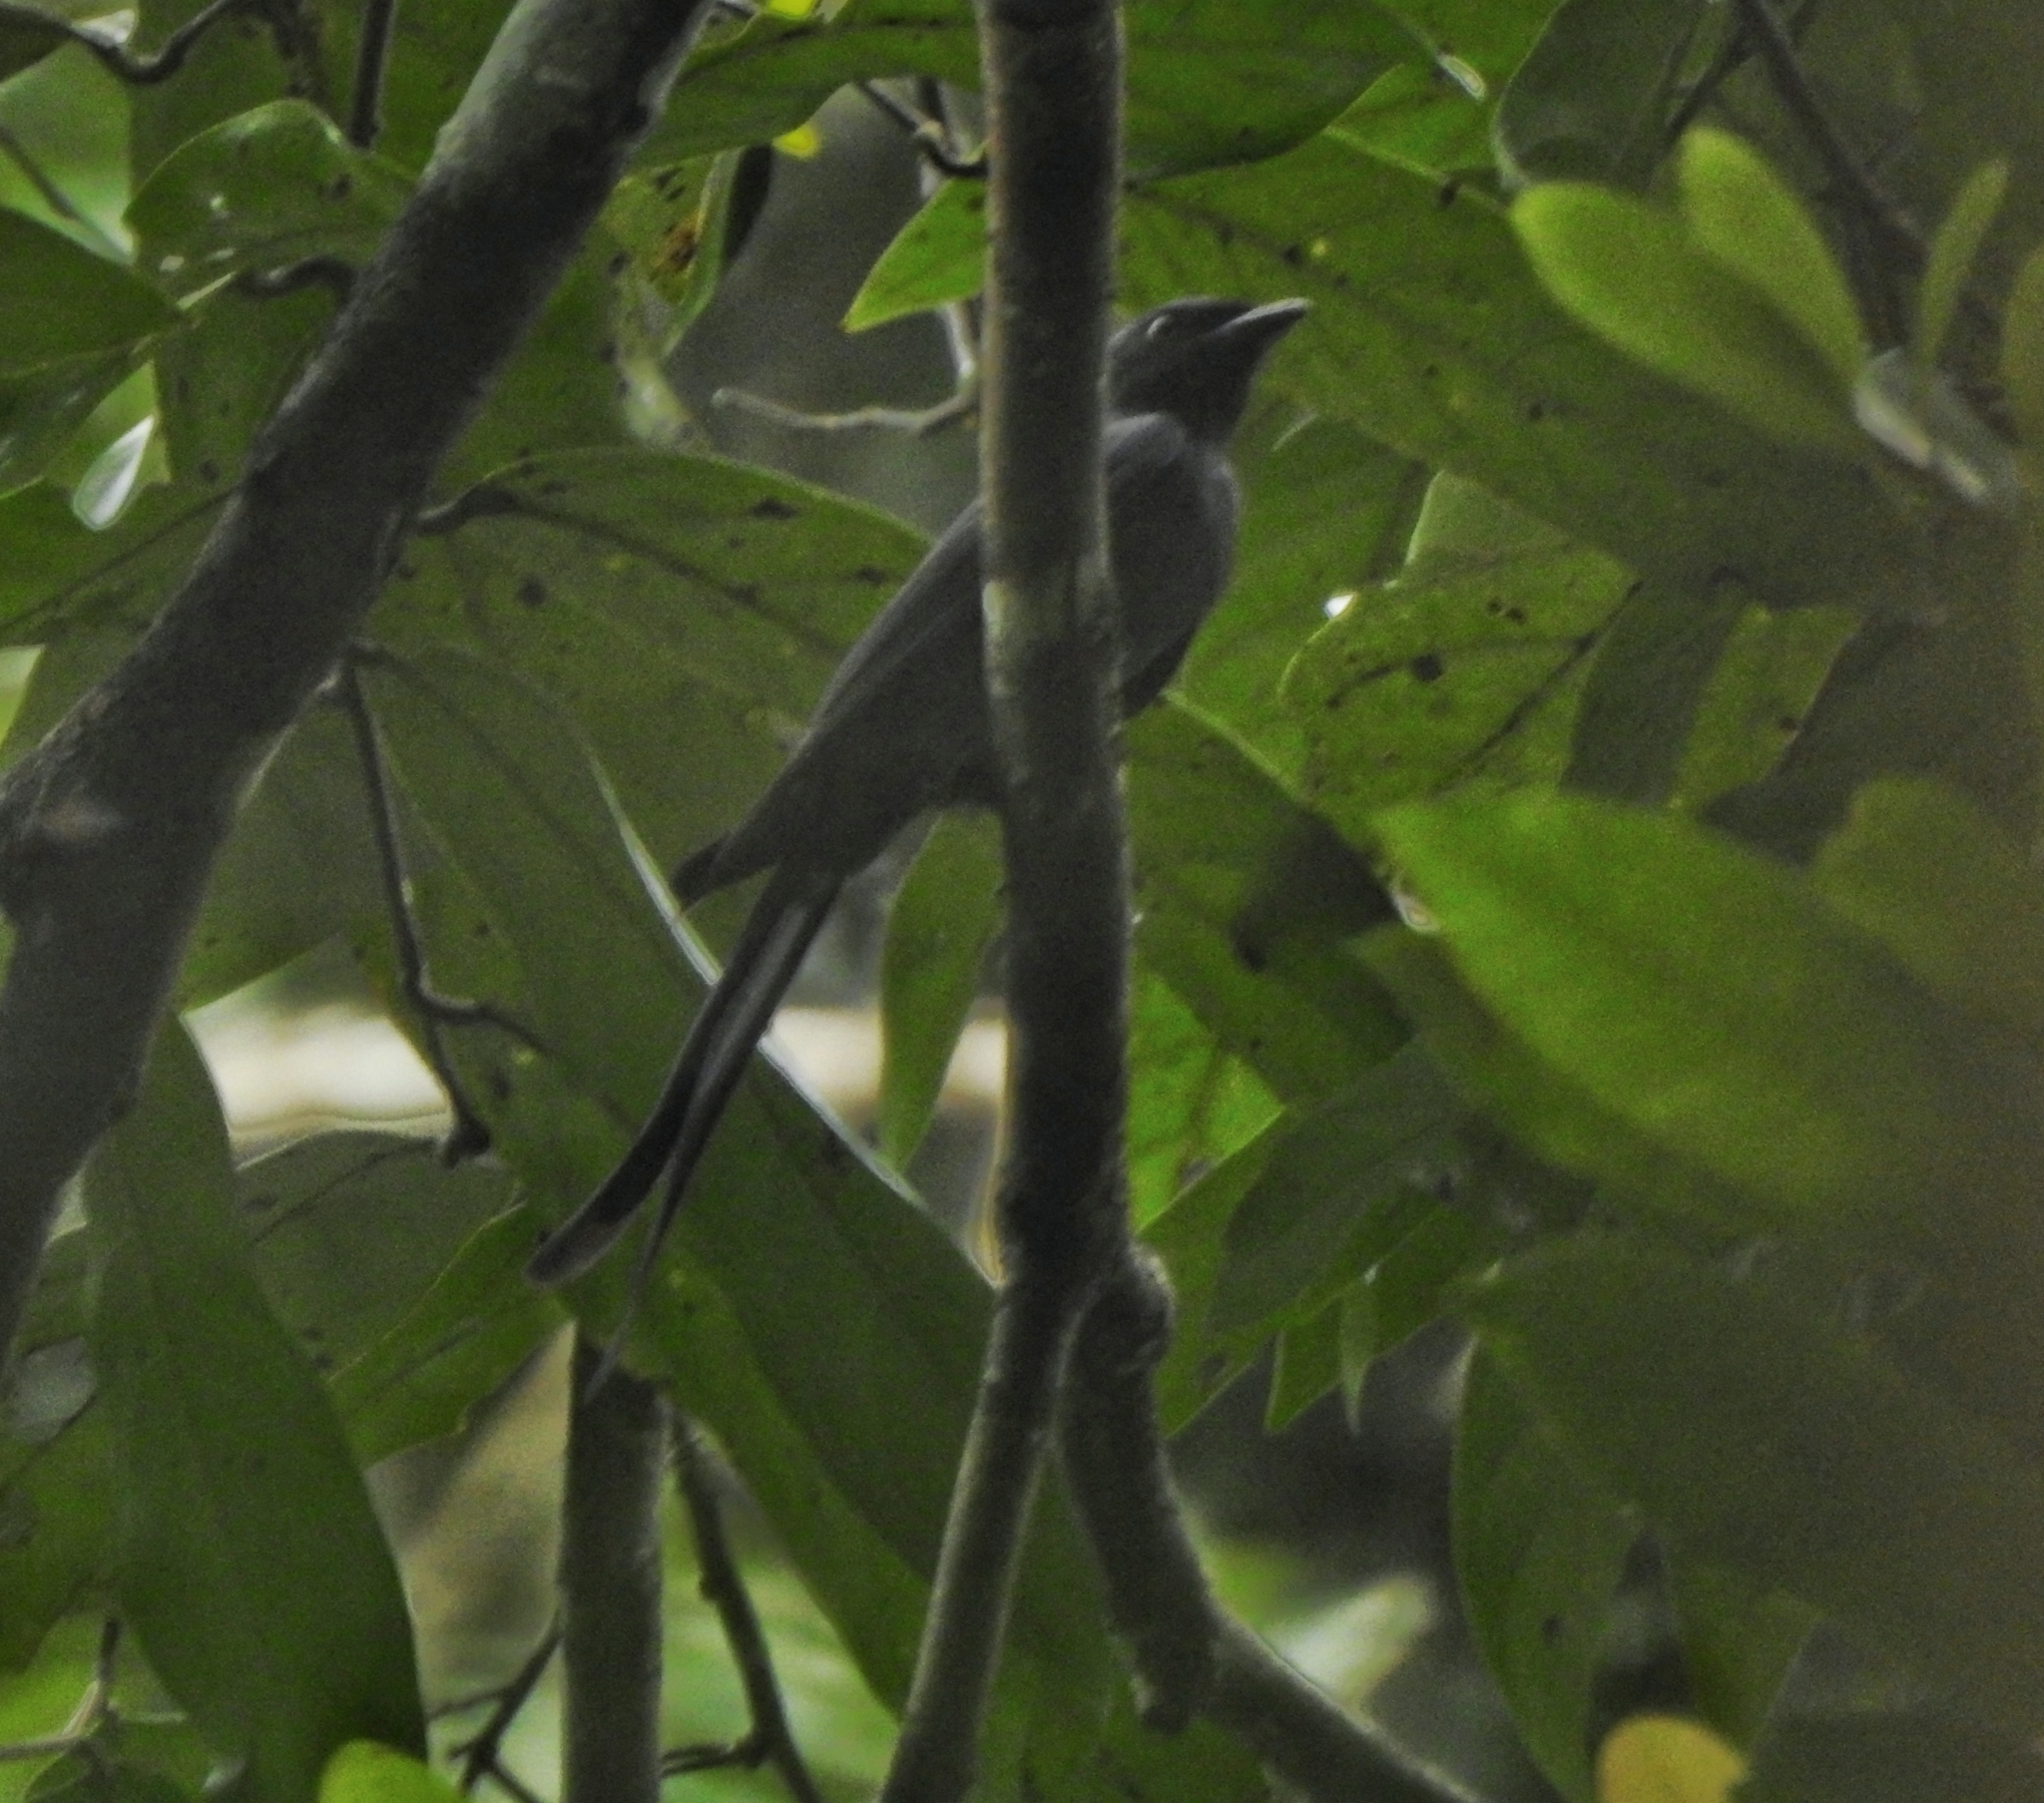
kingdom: Animalia
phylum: Chordata
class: Aves
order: Passeriformes
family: Dicruridae
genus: Dicrurus
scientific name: Dicrurus leucophaeus
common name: Ashy drongo
